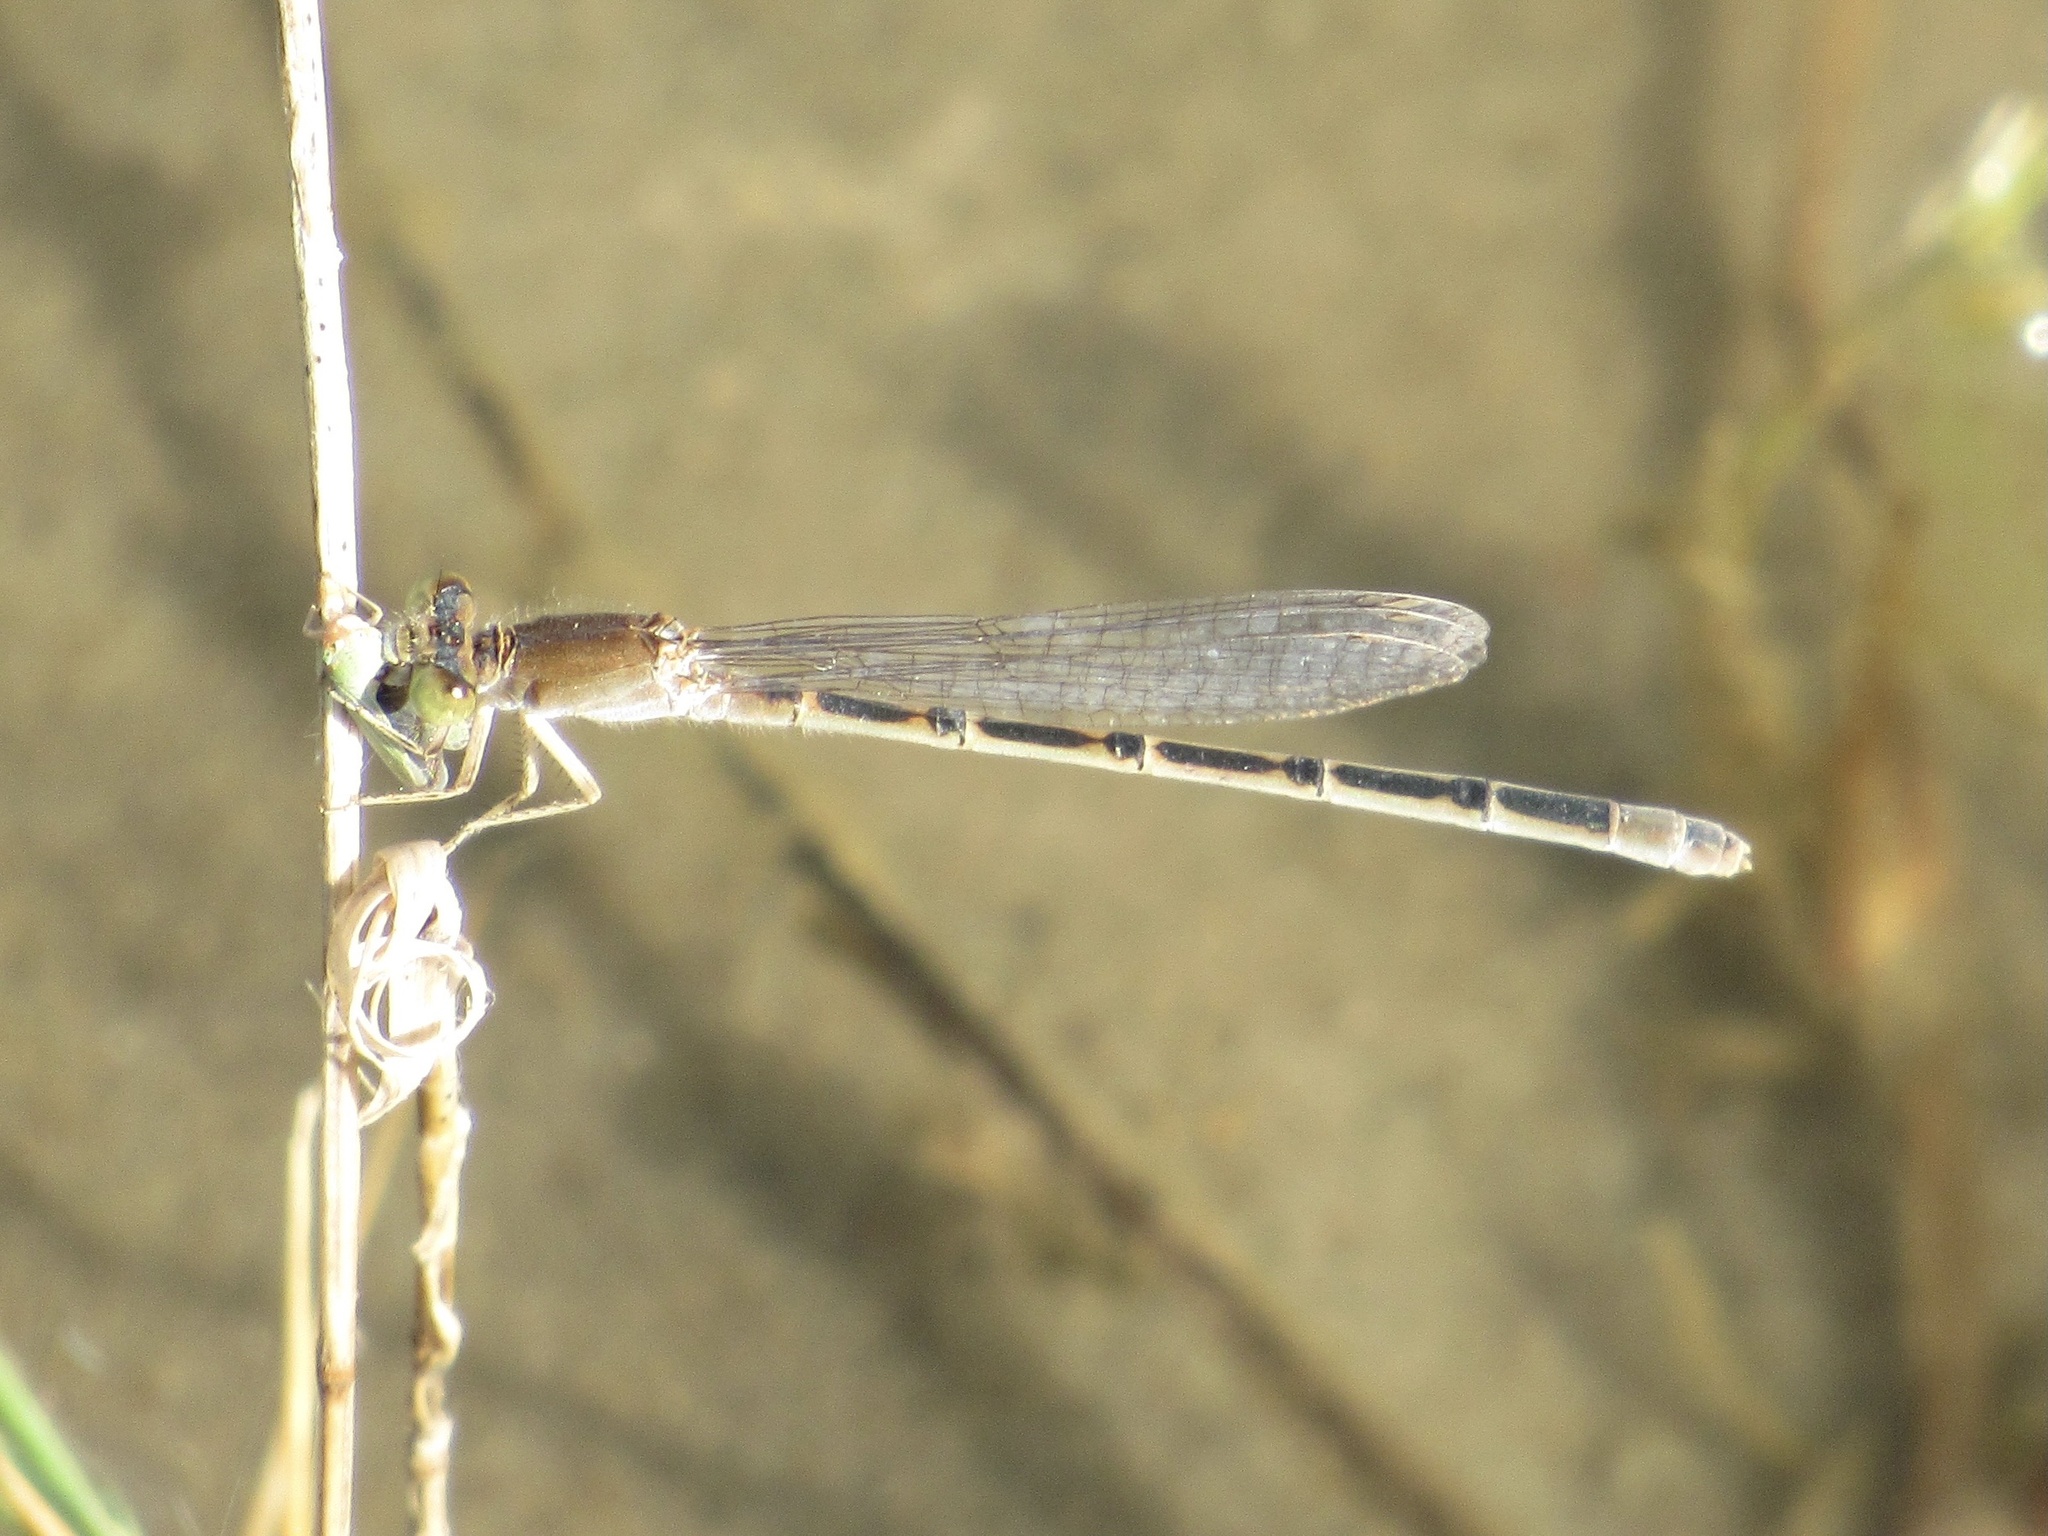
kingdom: Animalia
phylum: Arthropoda
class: Insecta
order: Odonata
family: Coenagrionidae
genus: Ischnura
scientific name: Ischnura barberi
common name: Desert forktail
